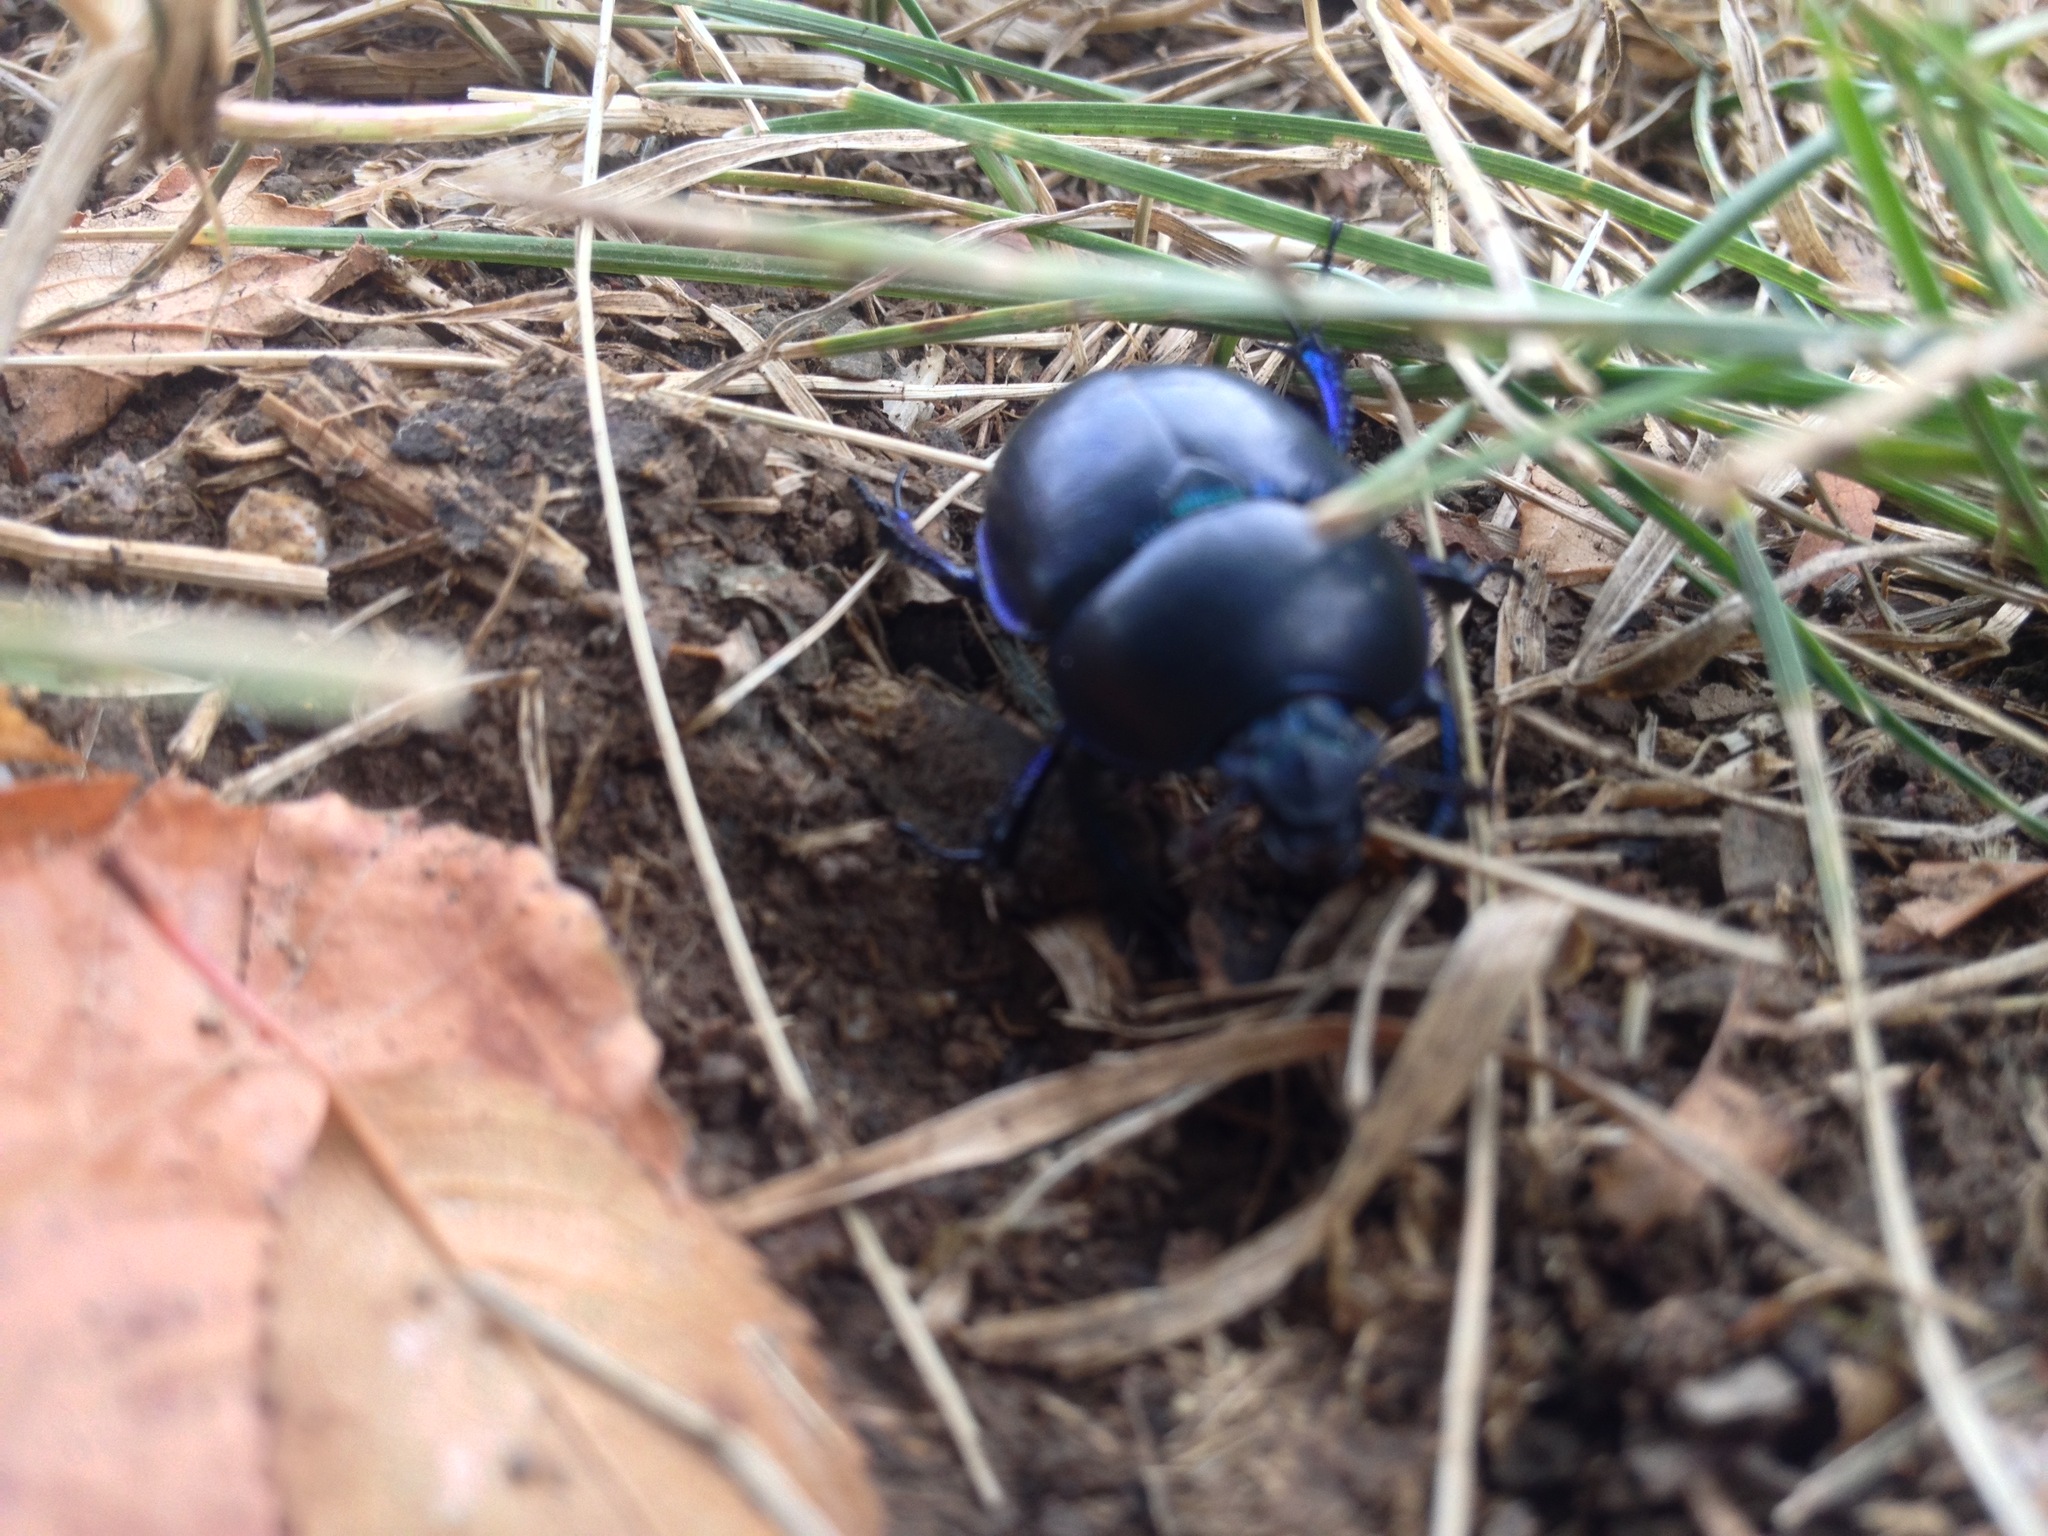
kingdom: Animalia
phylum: Arthropoda
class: Insecta
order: Coleoptera
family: Geotrupidae
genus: Trypocopris
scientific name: Trypocopris vernalis
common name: Spring dumbledor
